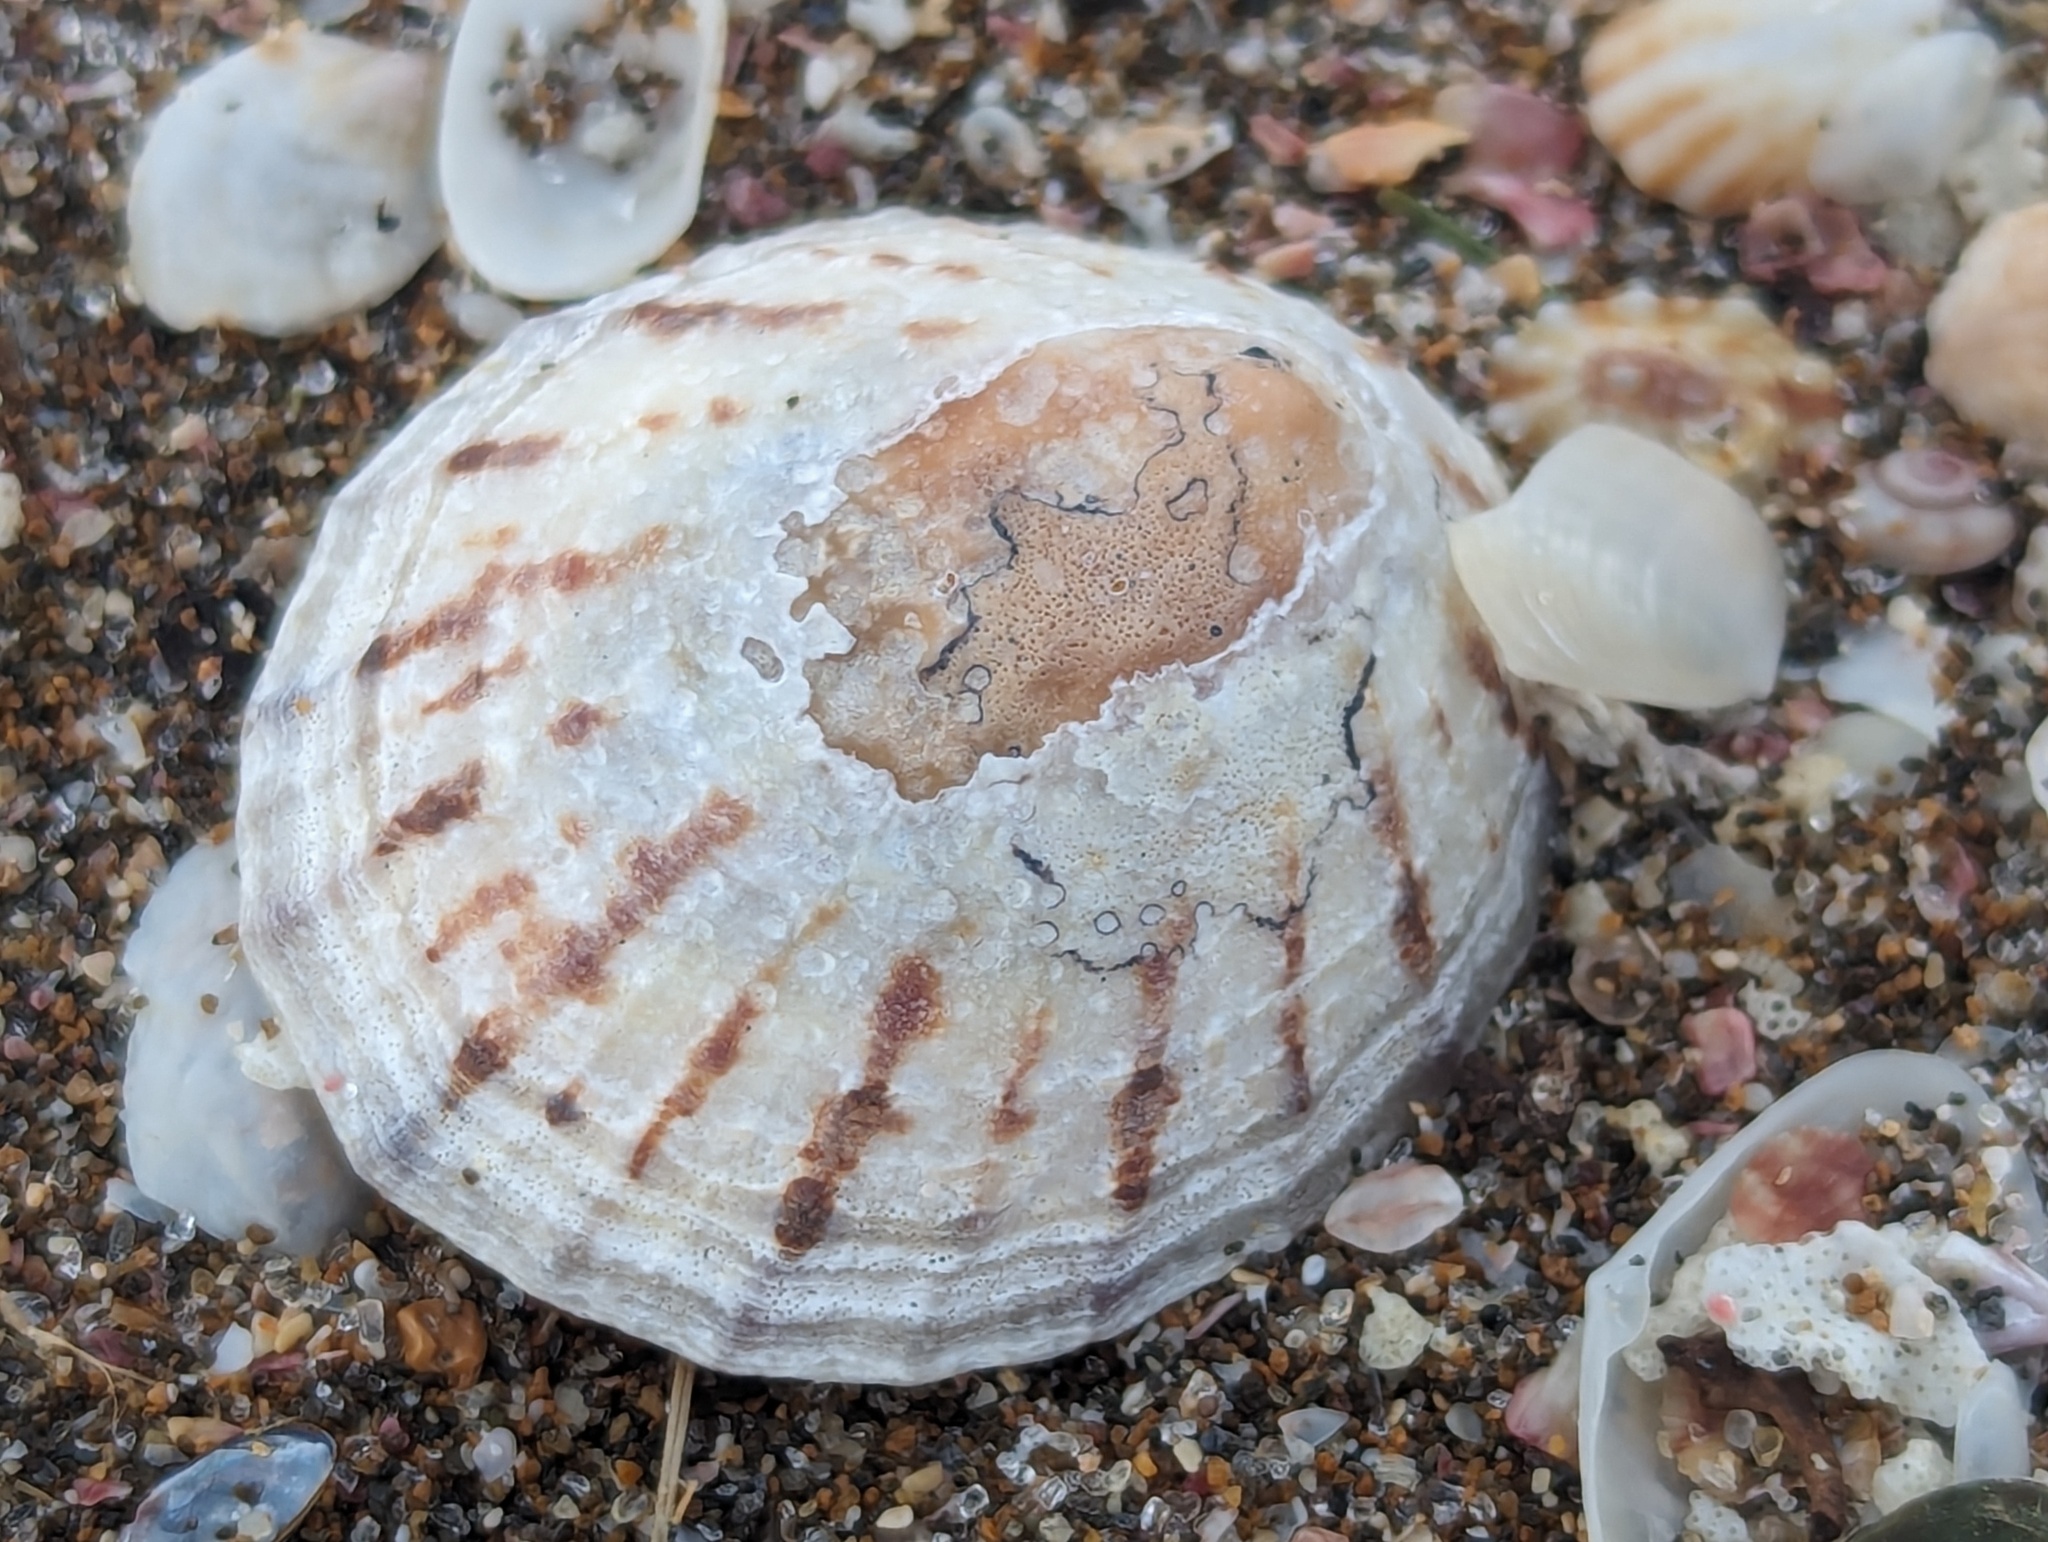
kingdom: Animalia
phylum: Mollusca
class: Gastropoda
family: Nacellidae
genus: Cellana
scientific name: Cellana radians
